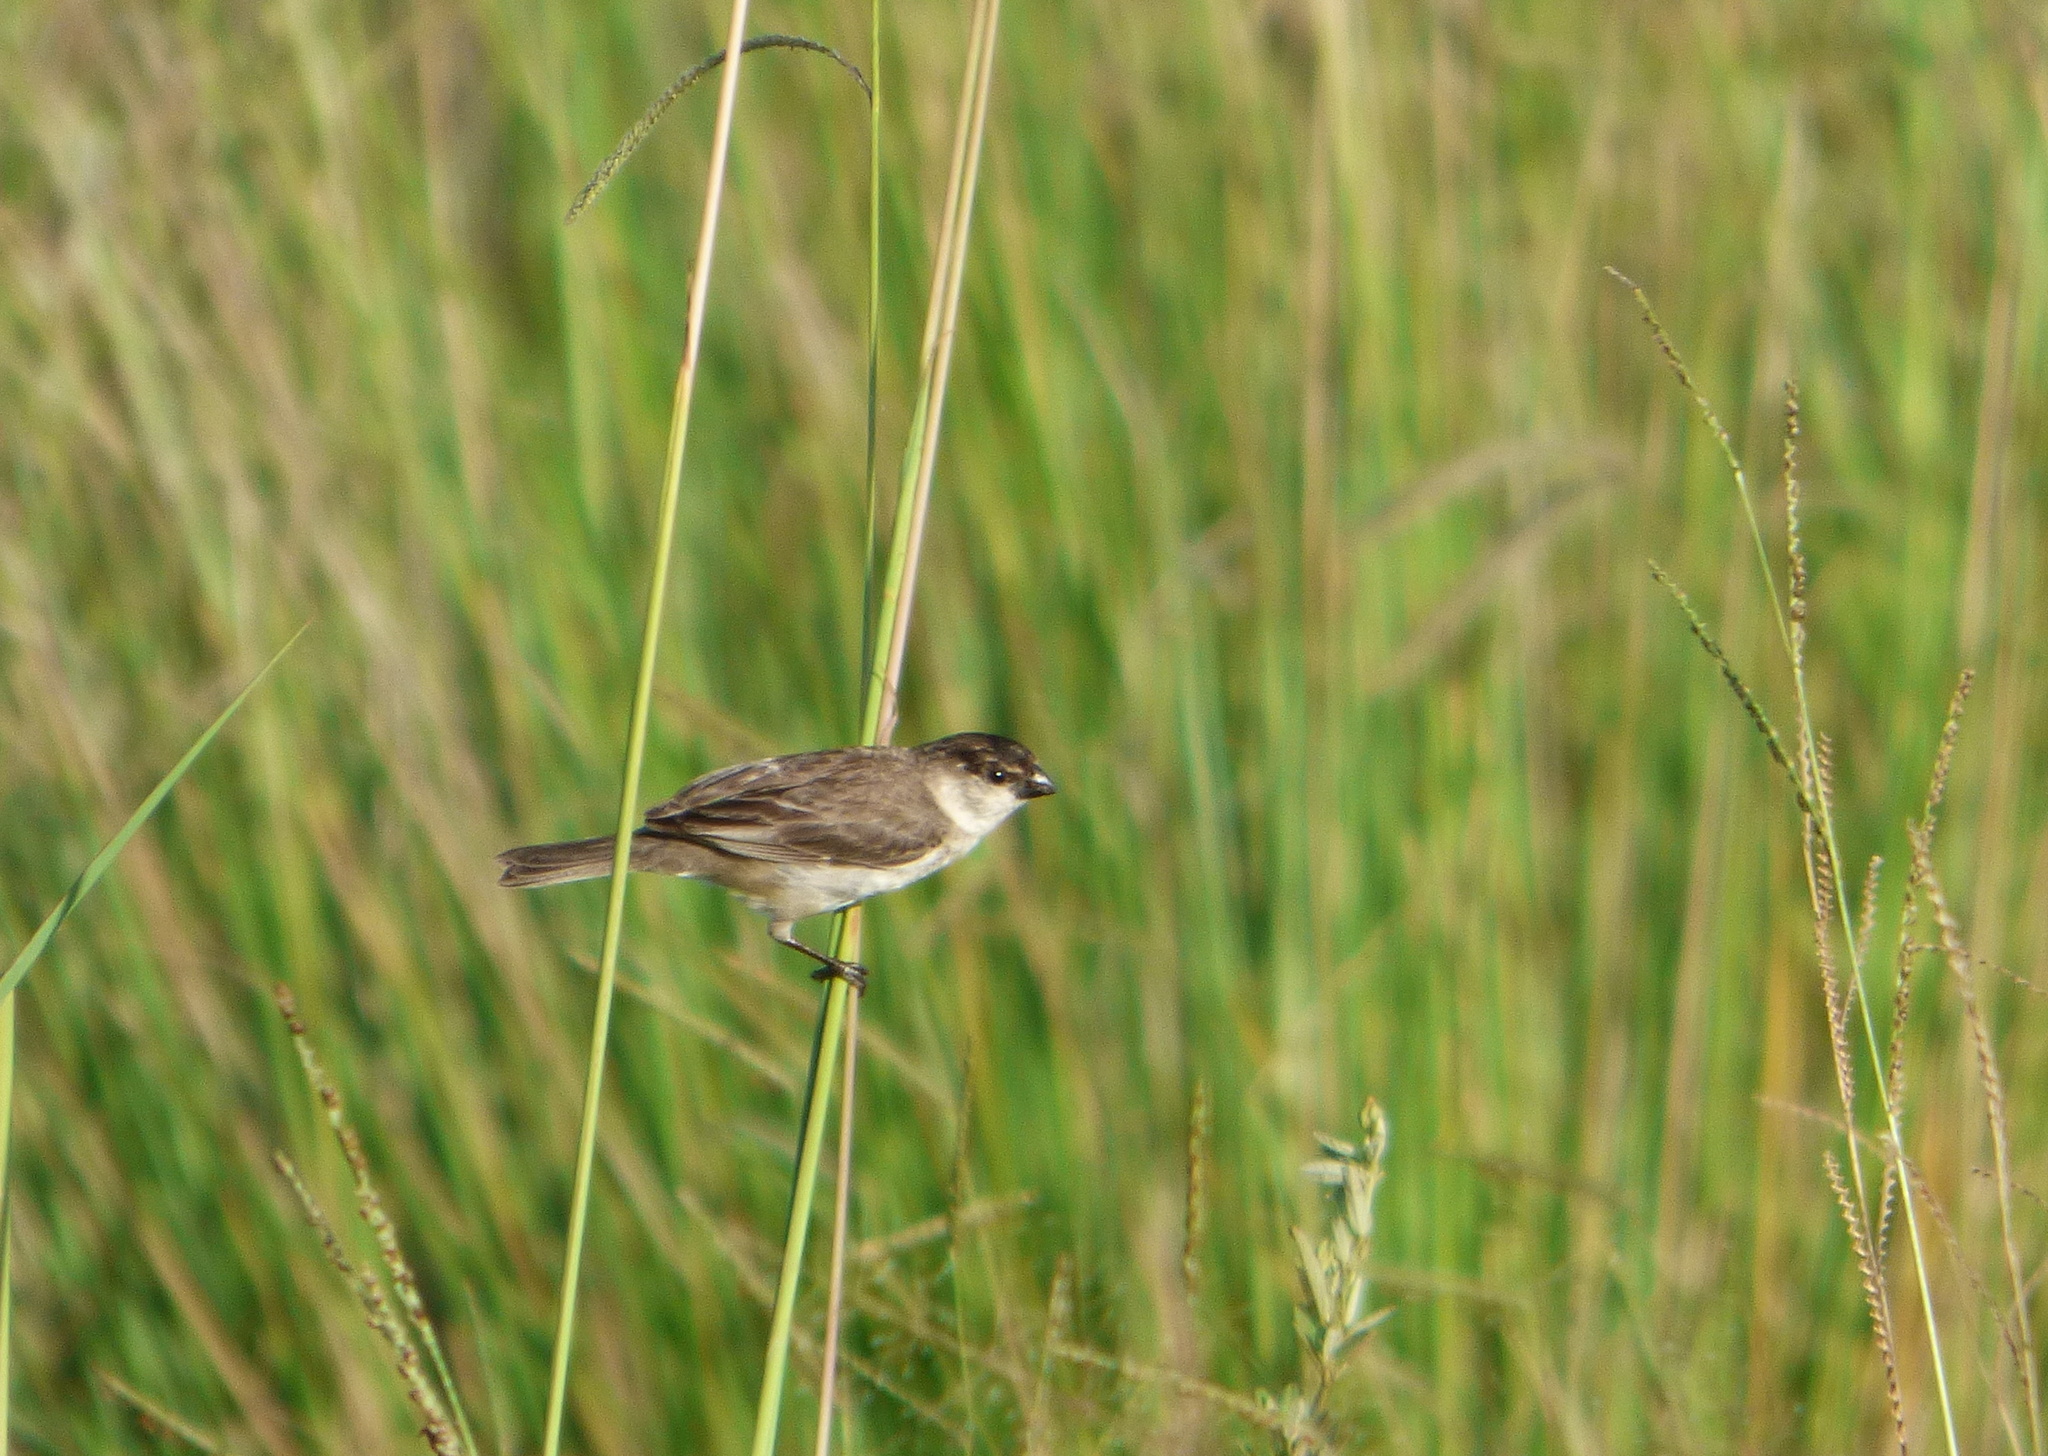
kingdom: Animalia
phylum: Chordata
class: Aves
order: Passeriformes
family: Thraupidae
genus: Sporophila
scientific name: Sporophila pileata
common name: Pearly-bellied seedeater
